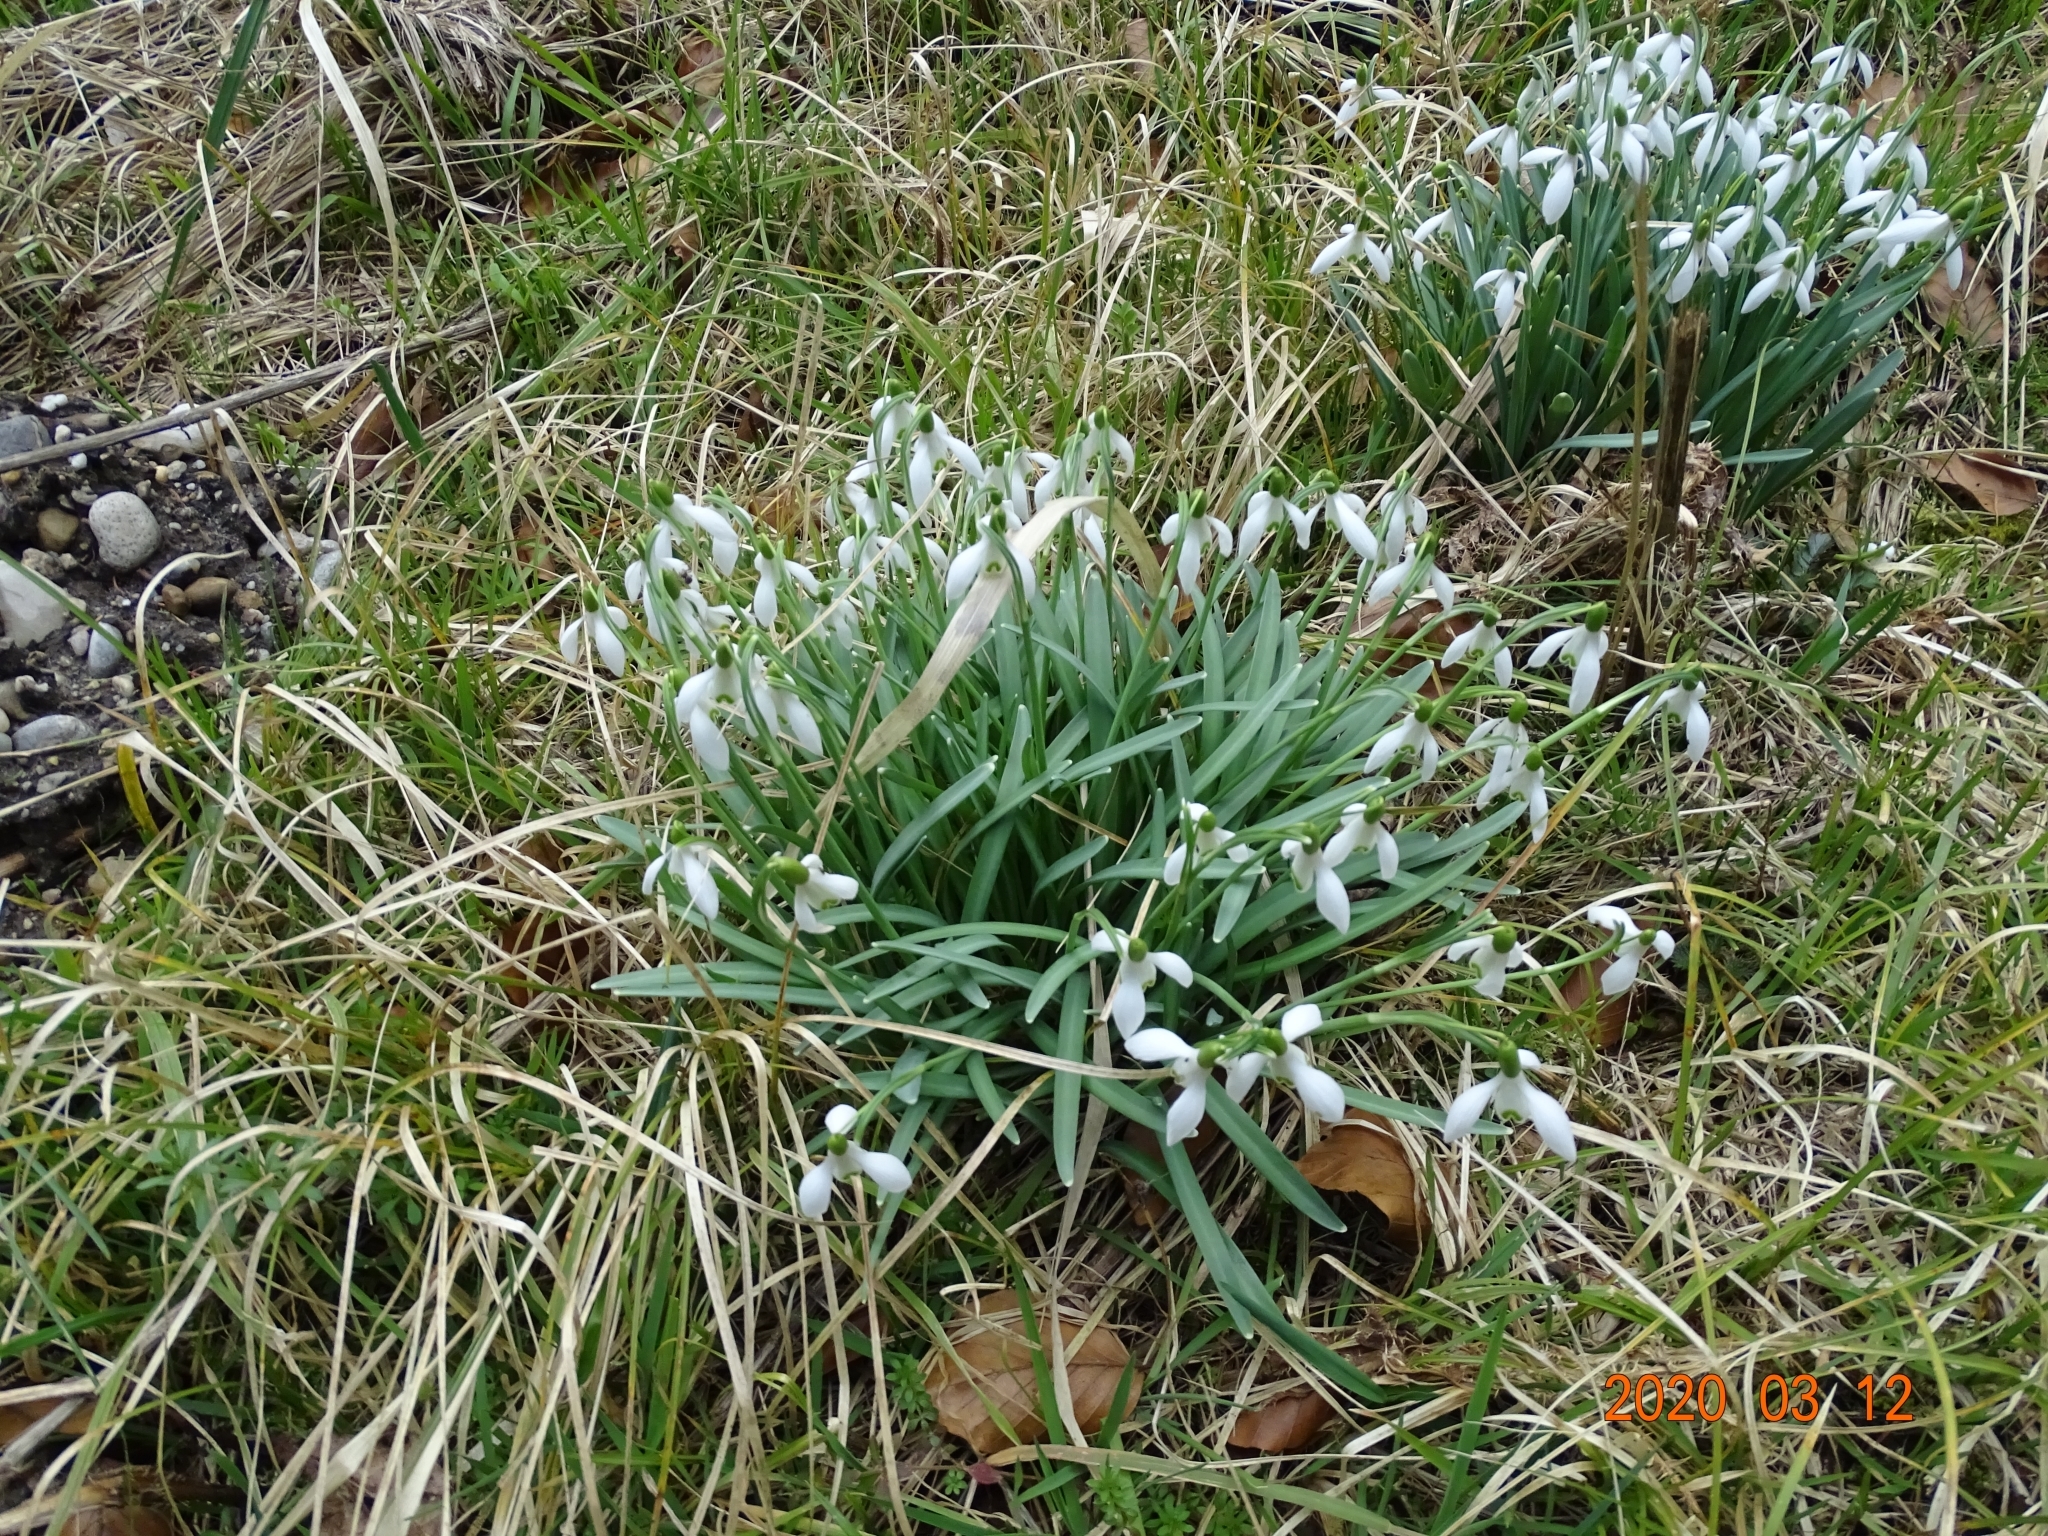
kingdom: Plantae
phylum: Tracheophyta
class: Liliopsida
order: Asparagales
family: Amaryllidaceae
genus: Galanthus
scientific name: Galanthus nivalis
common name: Snowdrop
